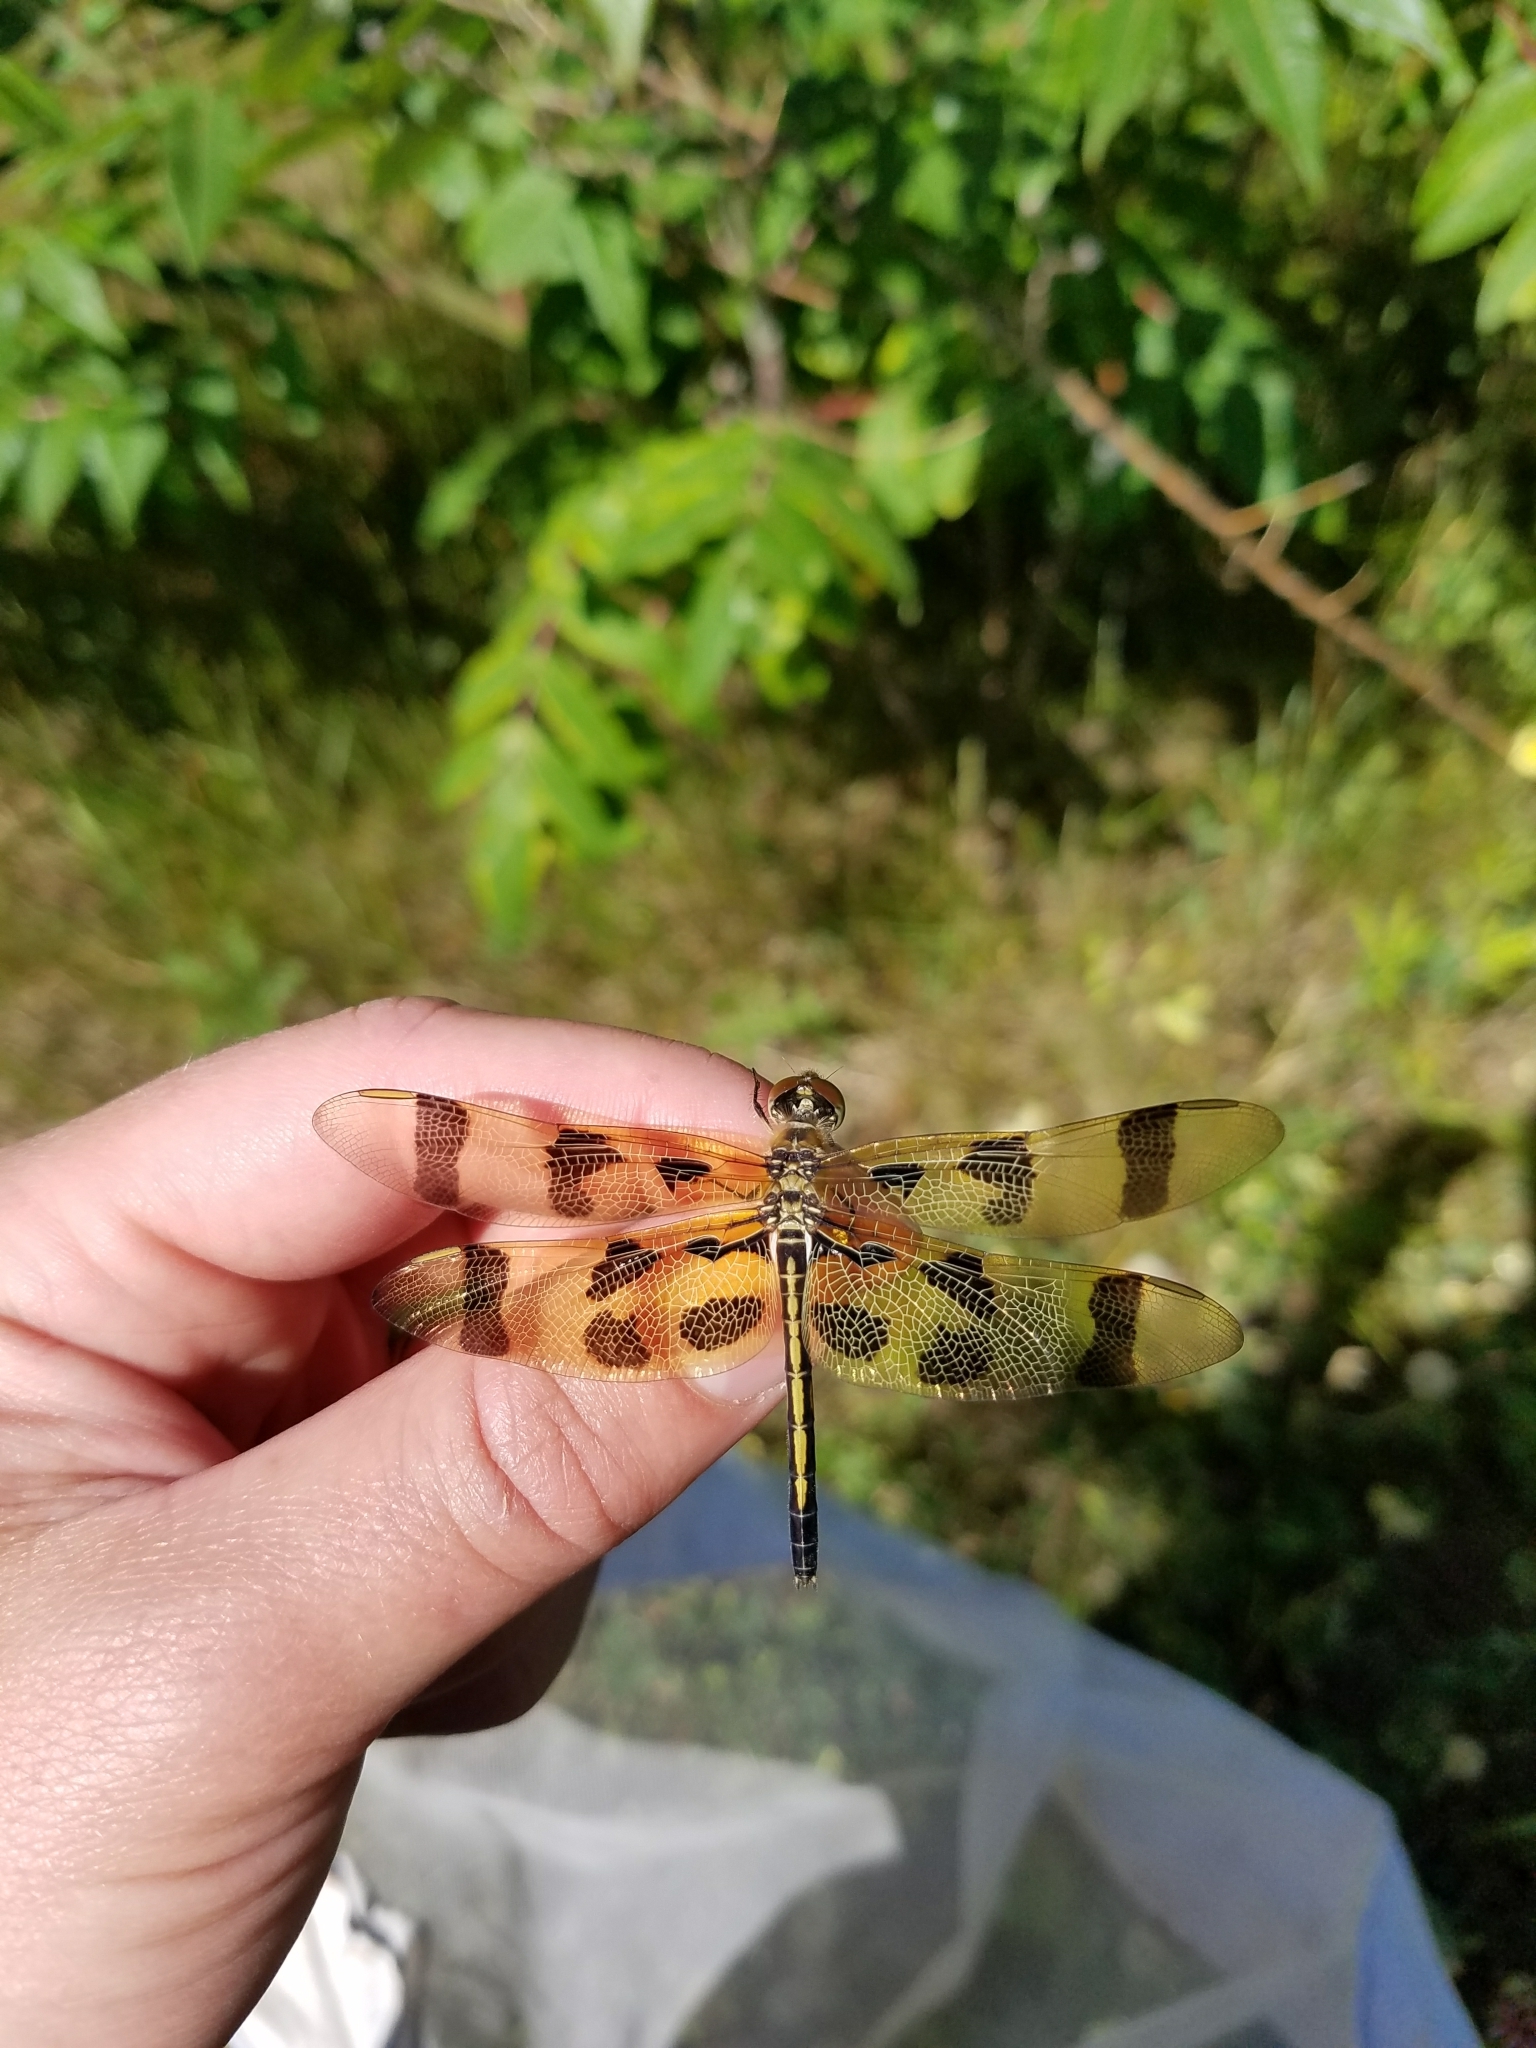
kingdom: Animalia
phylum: Arthropoda
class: Insecta
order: Odonata
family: Libellulidae
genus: Celithemis
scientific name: Celithemis eponina
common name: Halloween pennant
